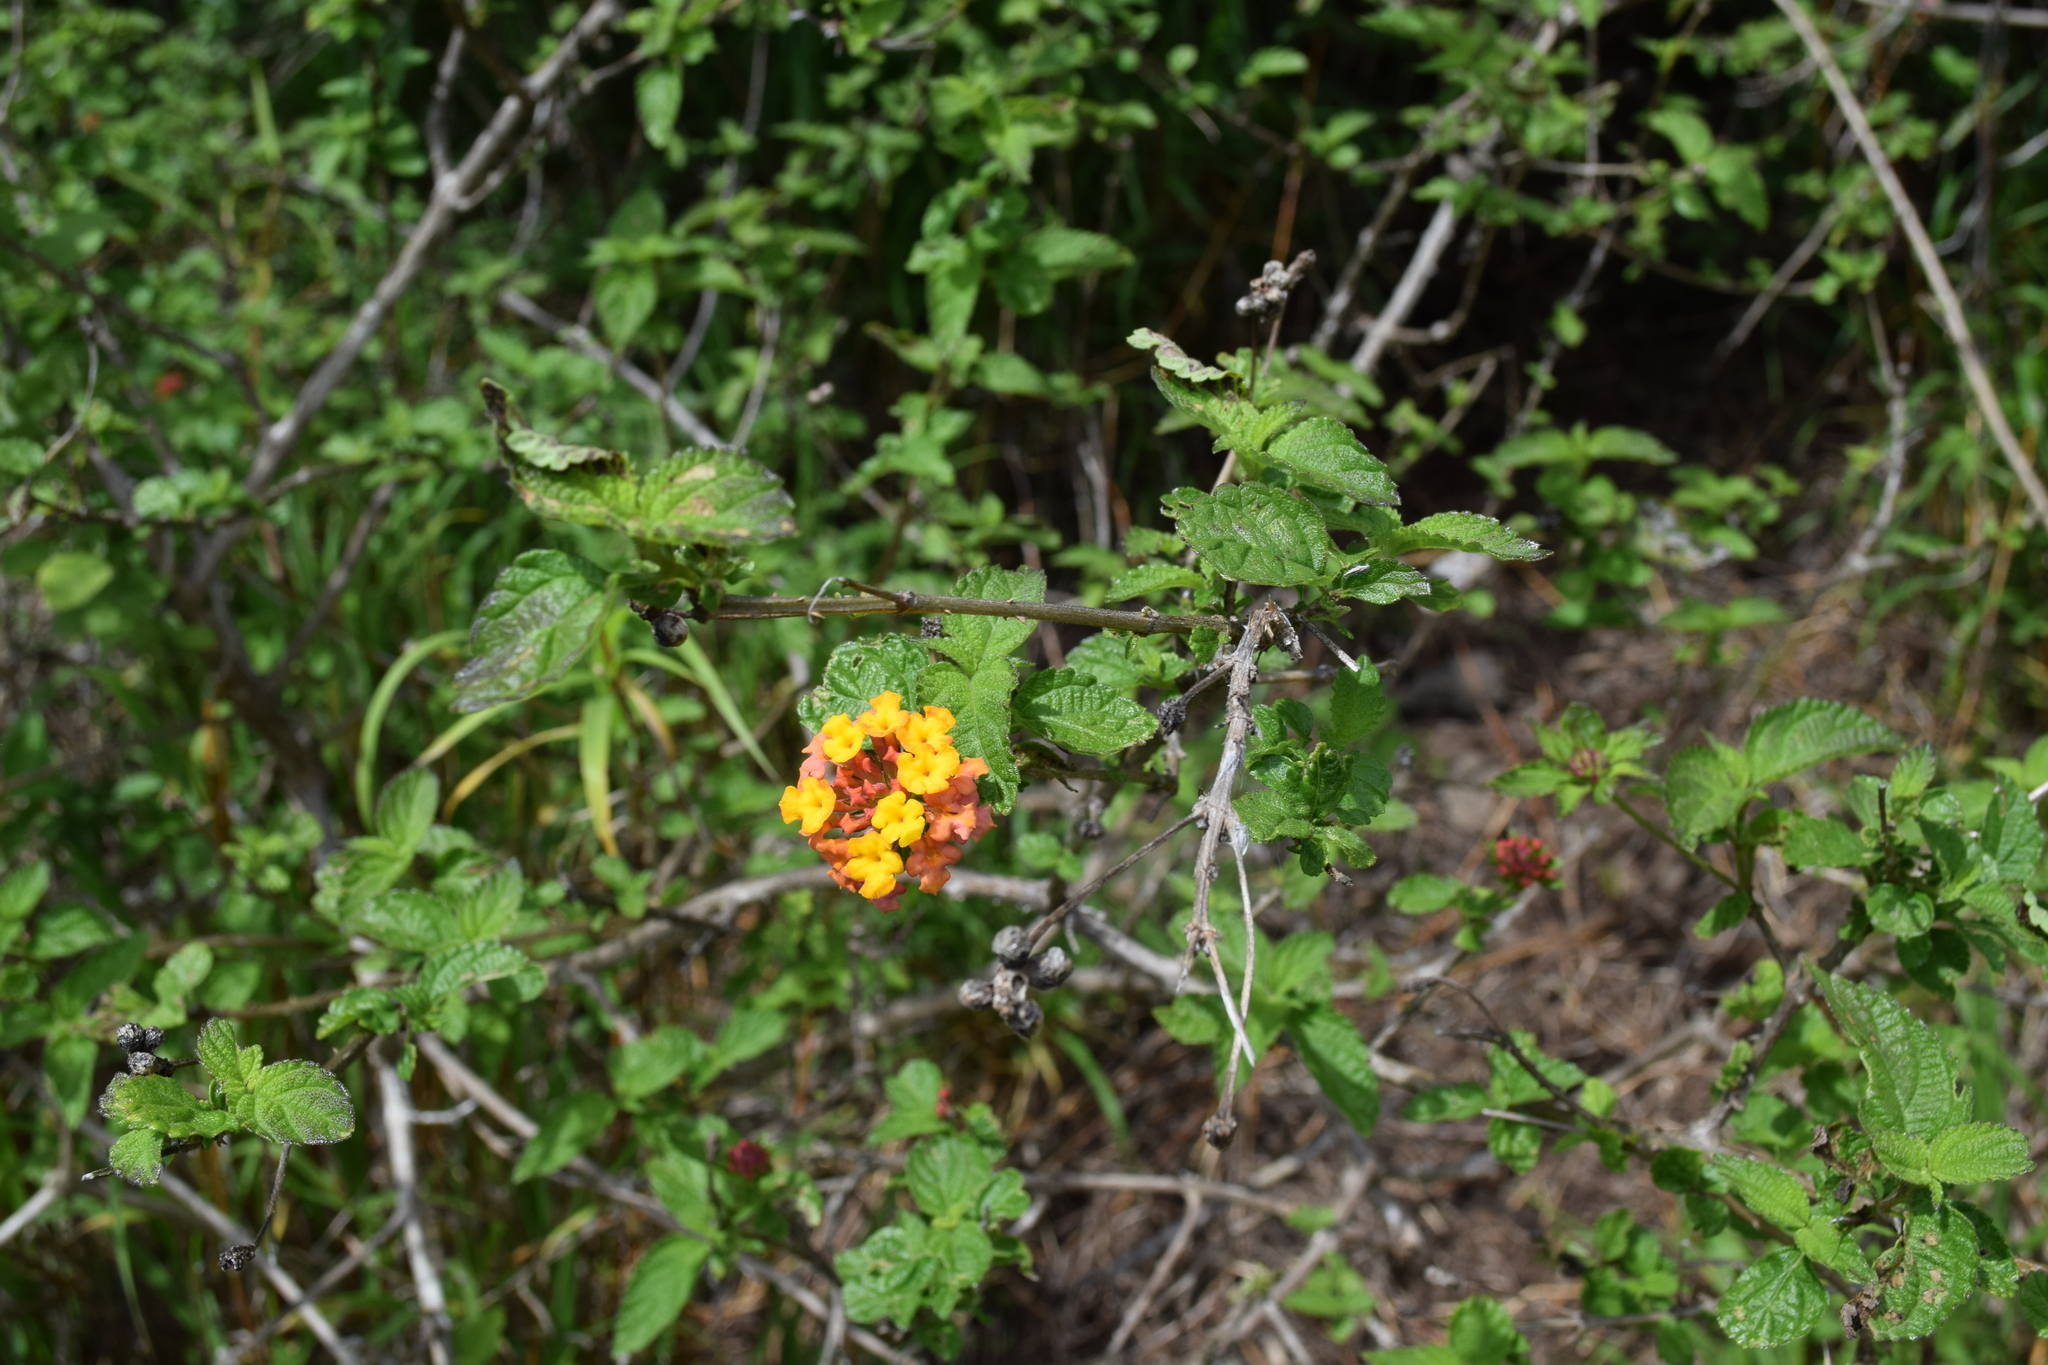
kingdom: Plantae
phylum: Tracheophyta
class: Magnoliopsida
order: Lamiales
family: Verbenaceae
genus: Lantana
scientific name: Lantana camara
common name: Lantana
